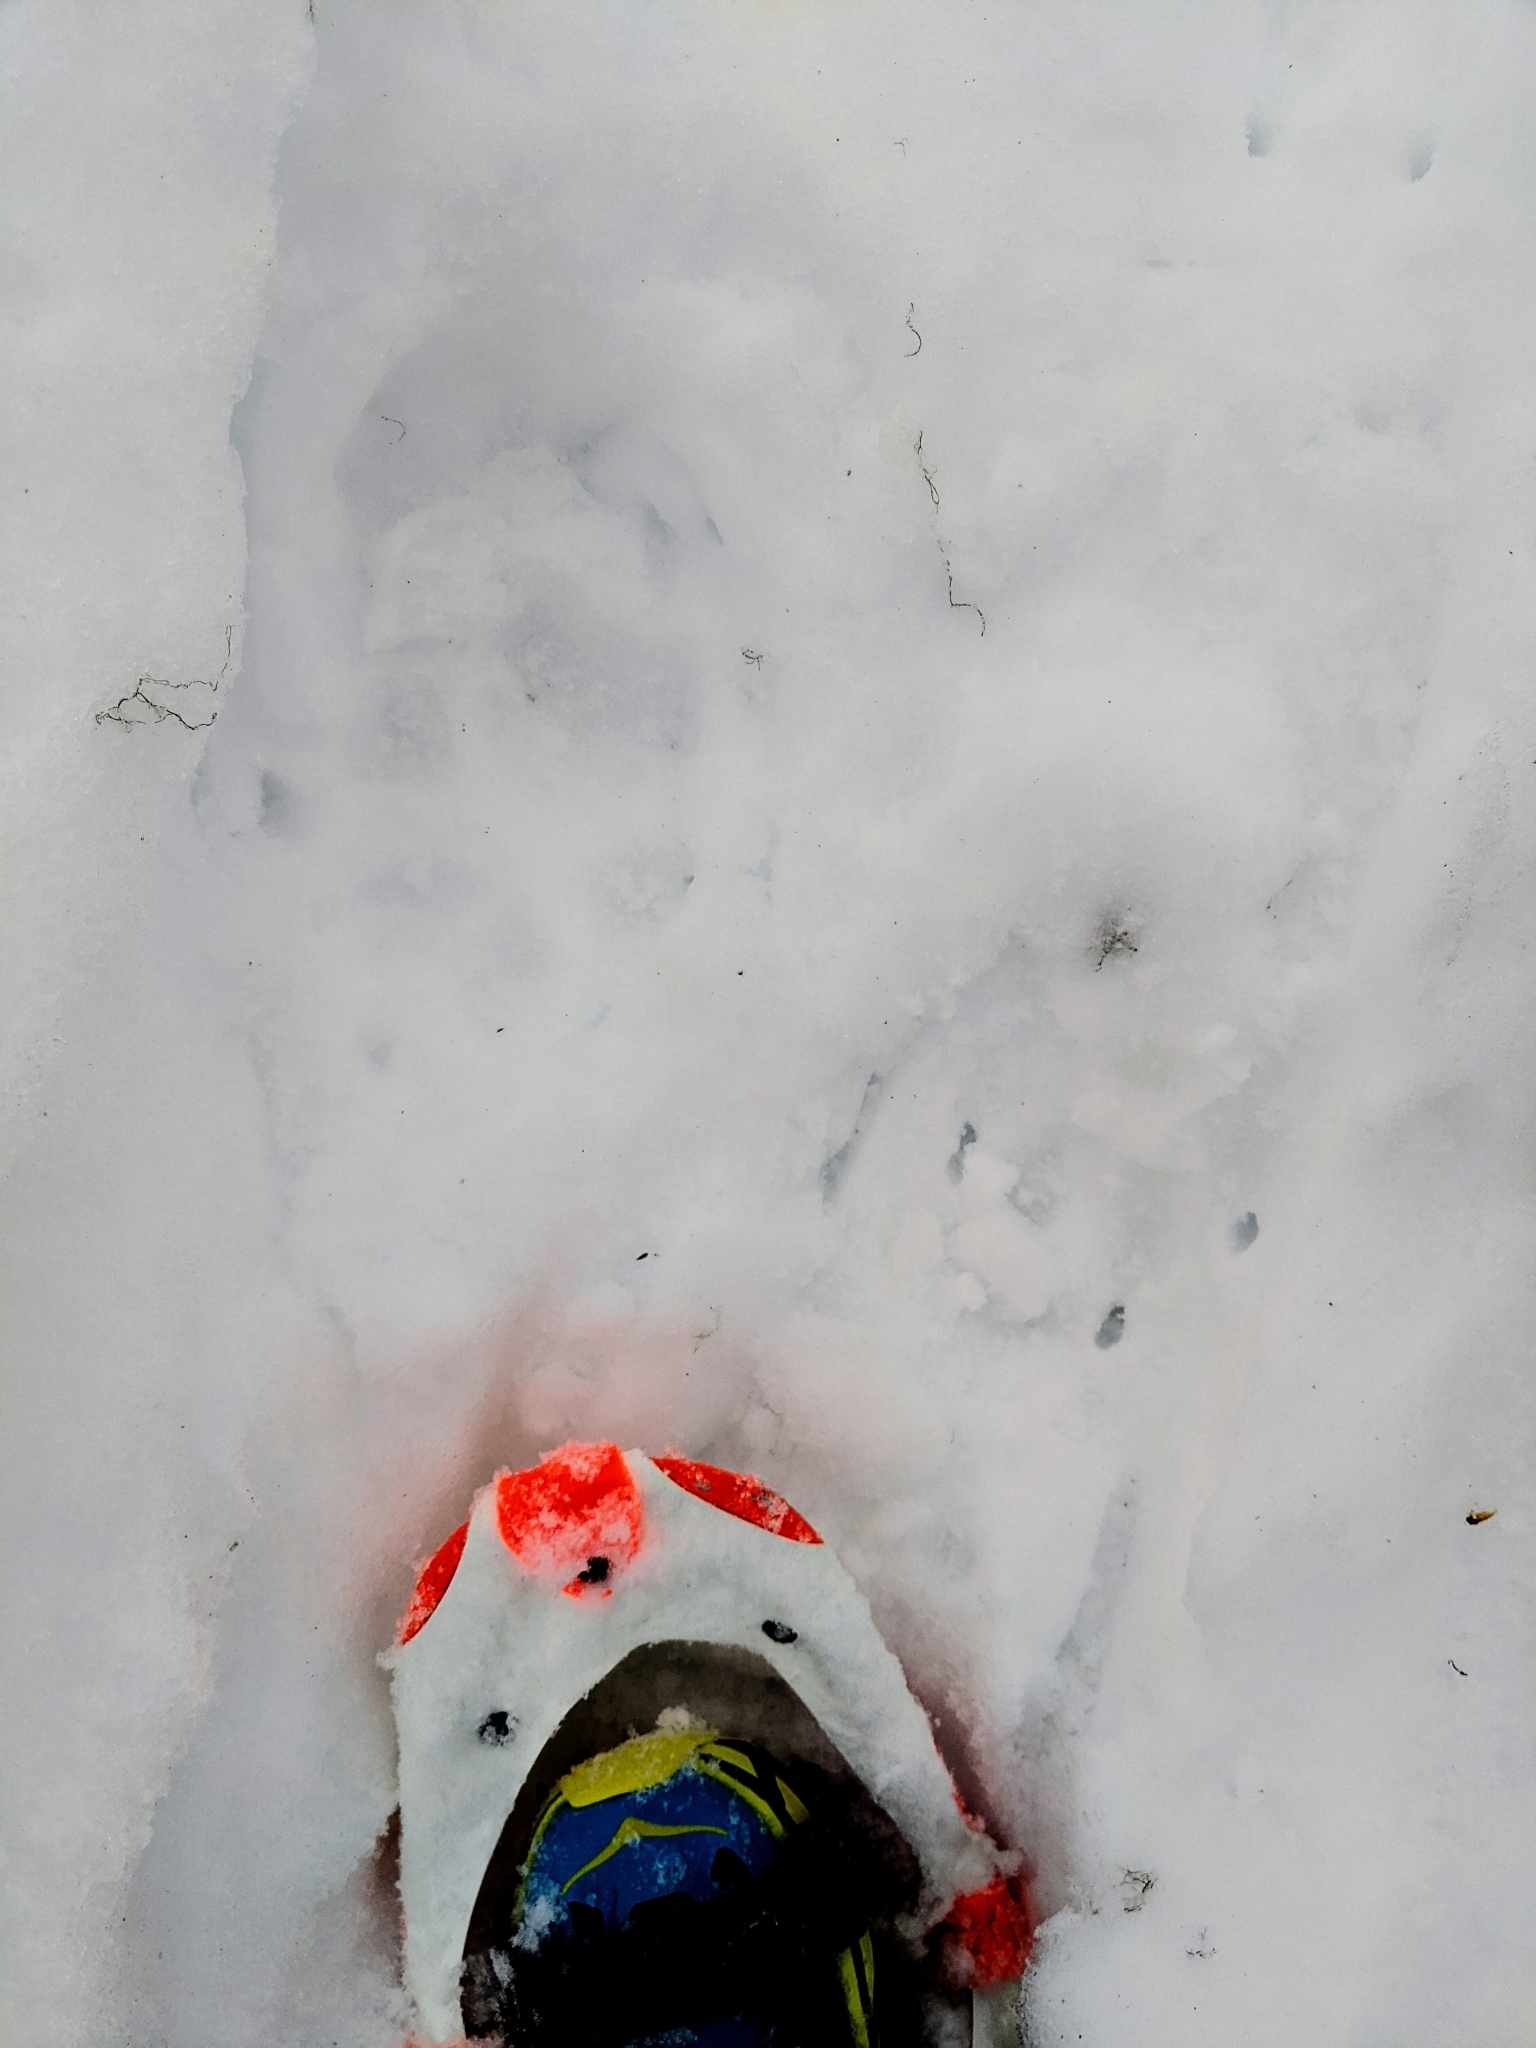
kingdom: Animalia
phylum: Chordata
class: Mammalia
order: Carnivora
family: Canidae
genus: Canis
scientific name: Canis lupus
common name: Gray wolf
